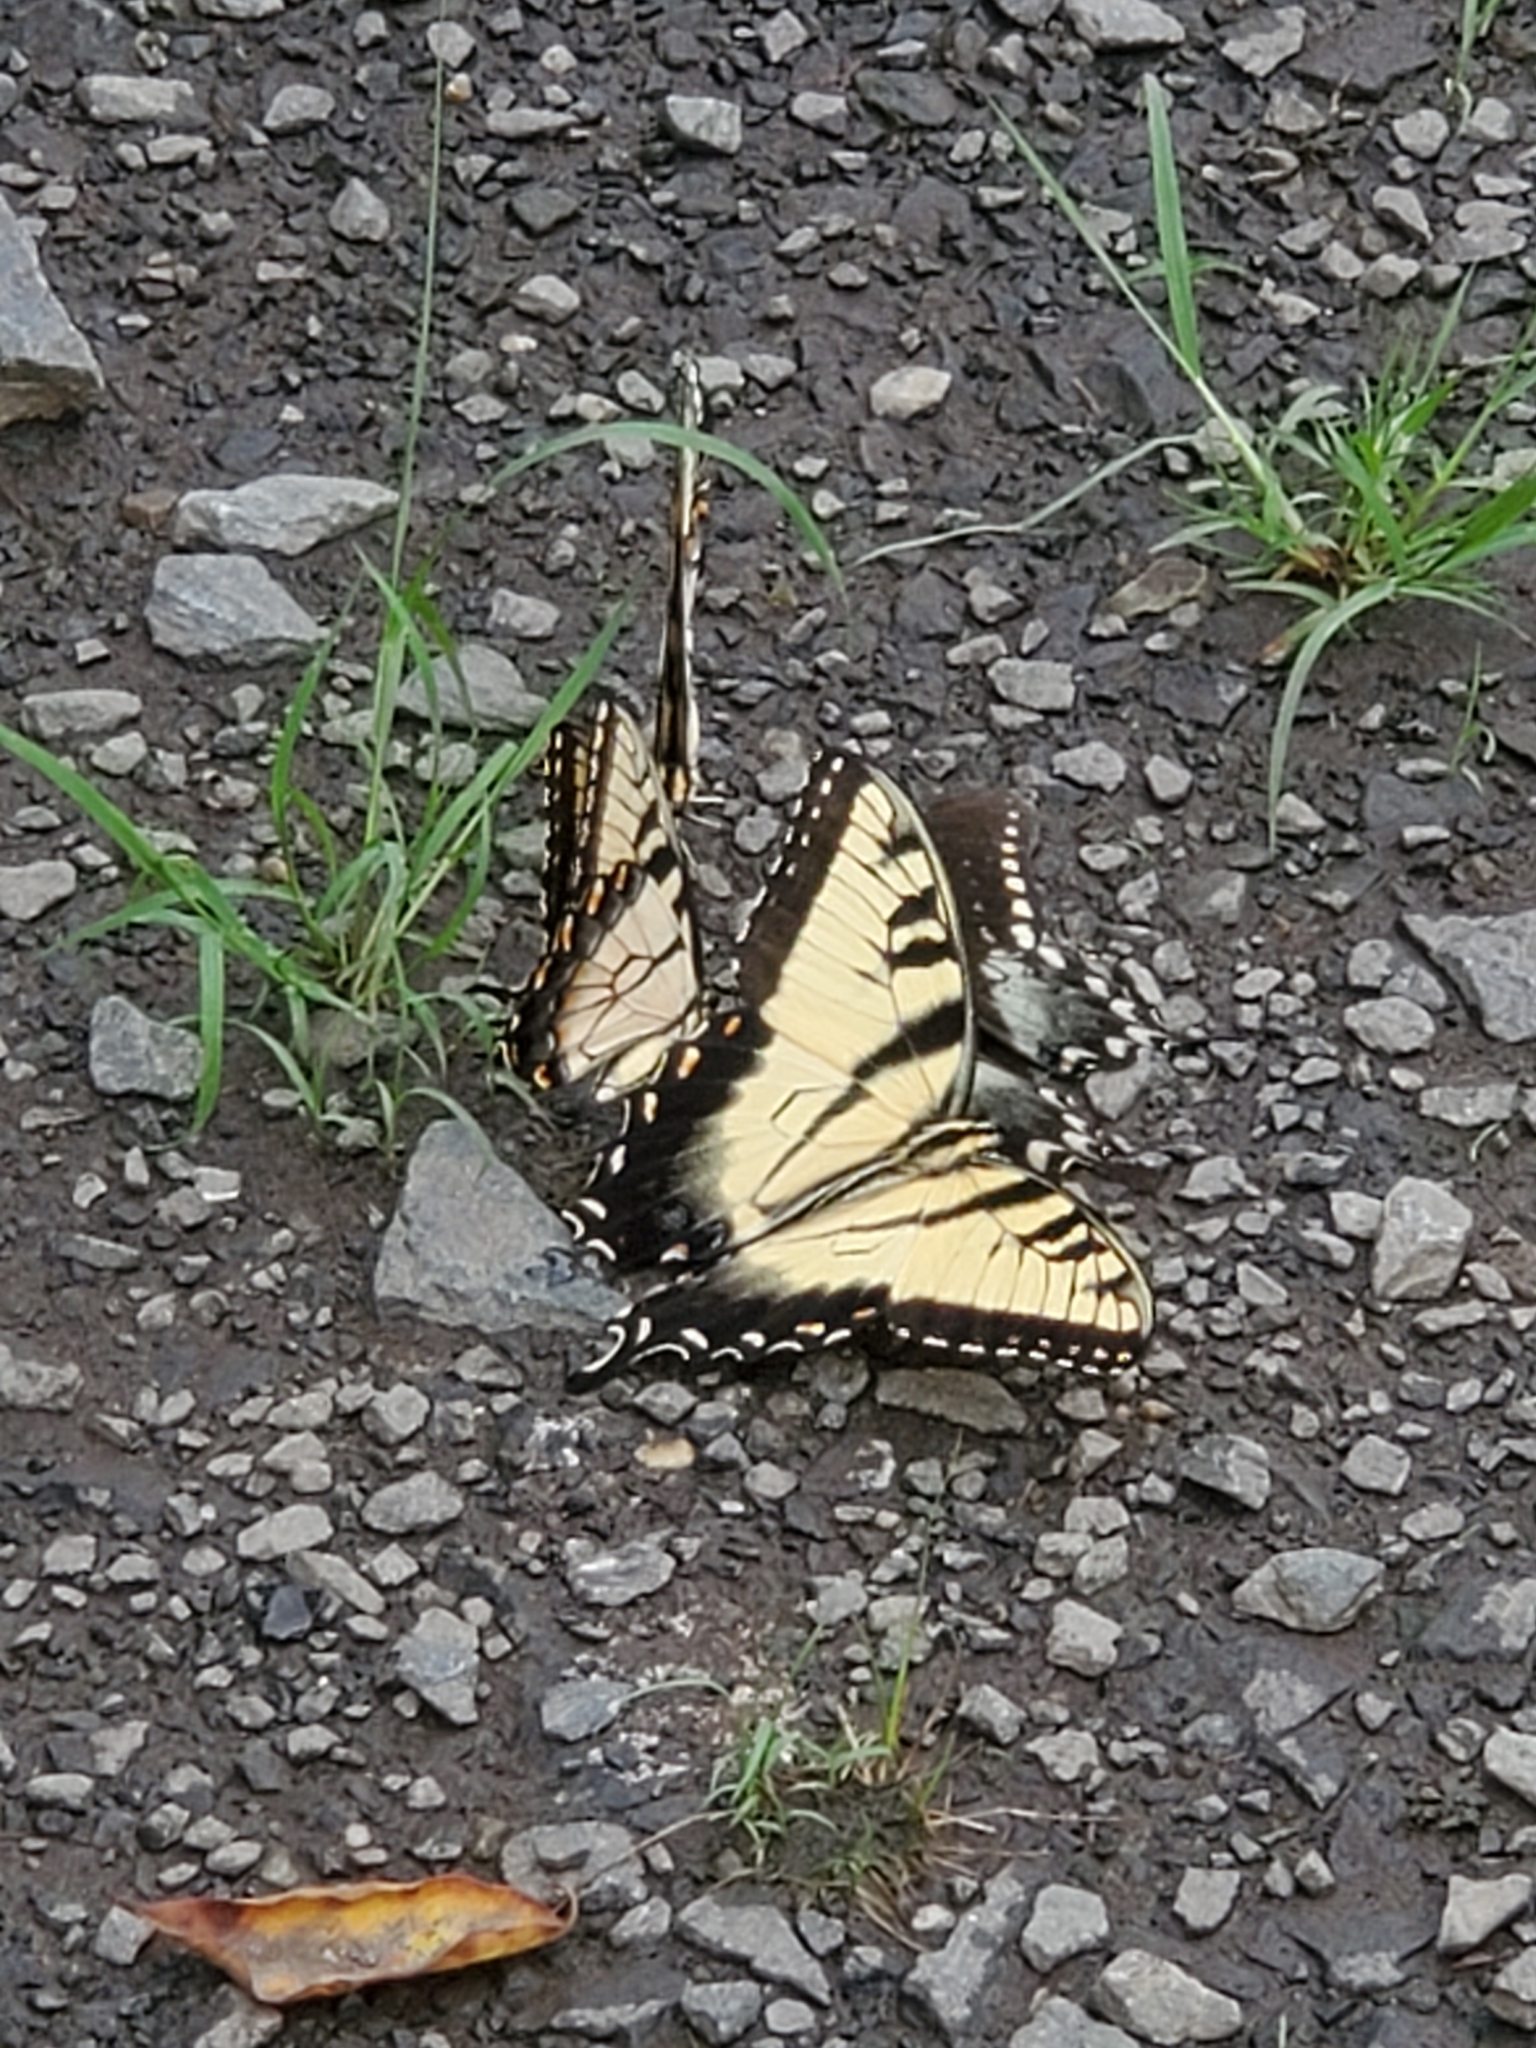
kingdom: Animalia
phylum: Arthropoda
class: Insecta
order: Lepidoptera
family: Papilionidae
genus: Papilio
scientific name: Papilio glaucus
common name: Tiger swallowtail
